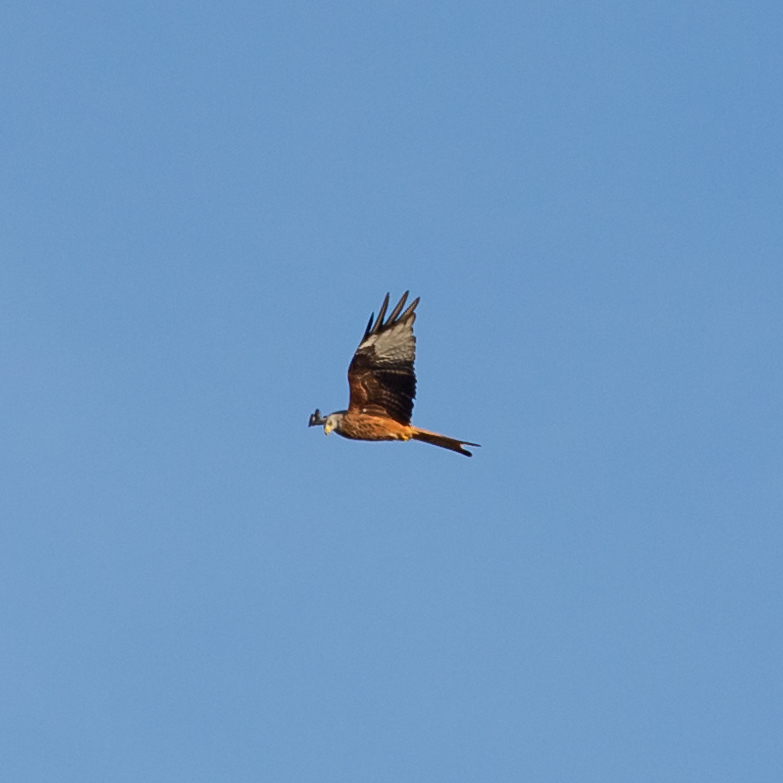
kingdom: Animalia
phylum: Chordata
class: Aves
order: Accipitriformes
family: Accipitridae
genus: Milvus
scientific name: Milvus milvus
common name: Red kite
